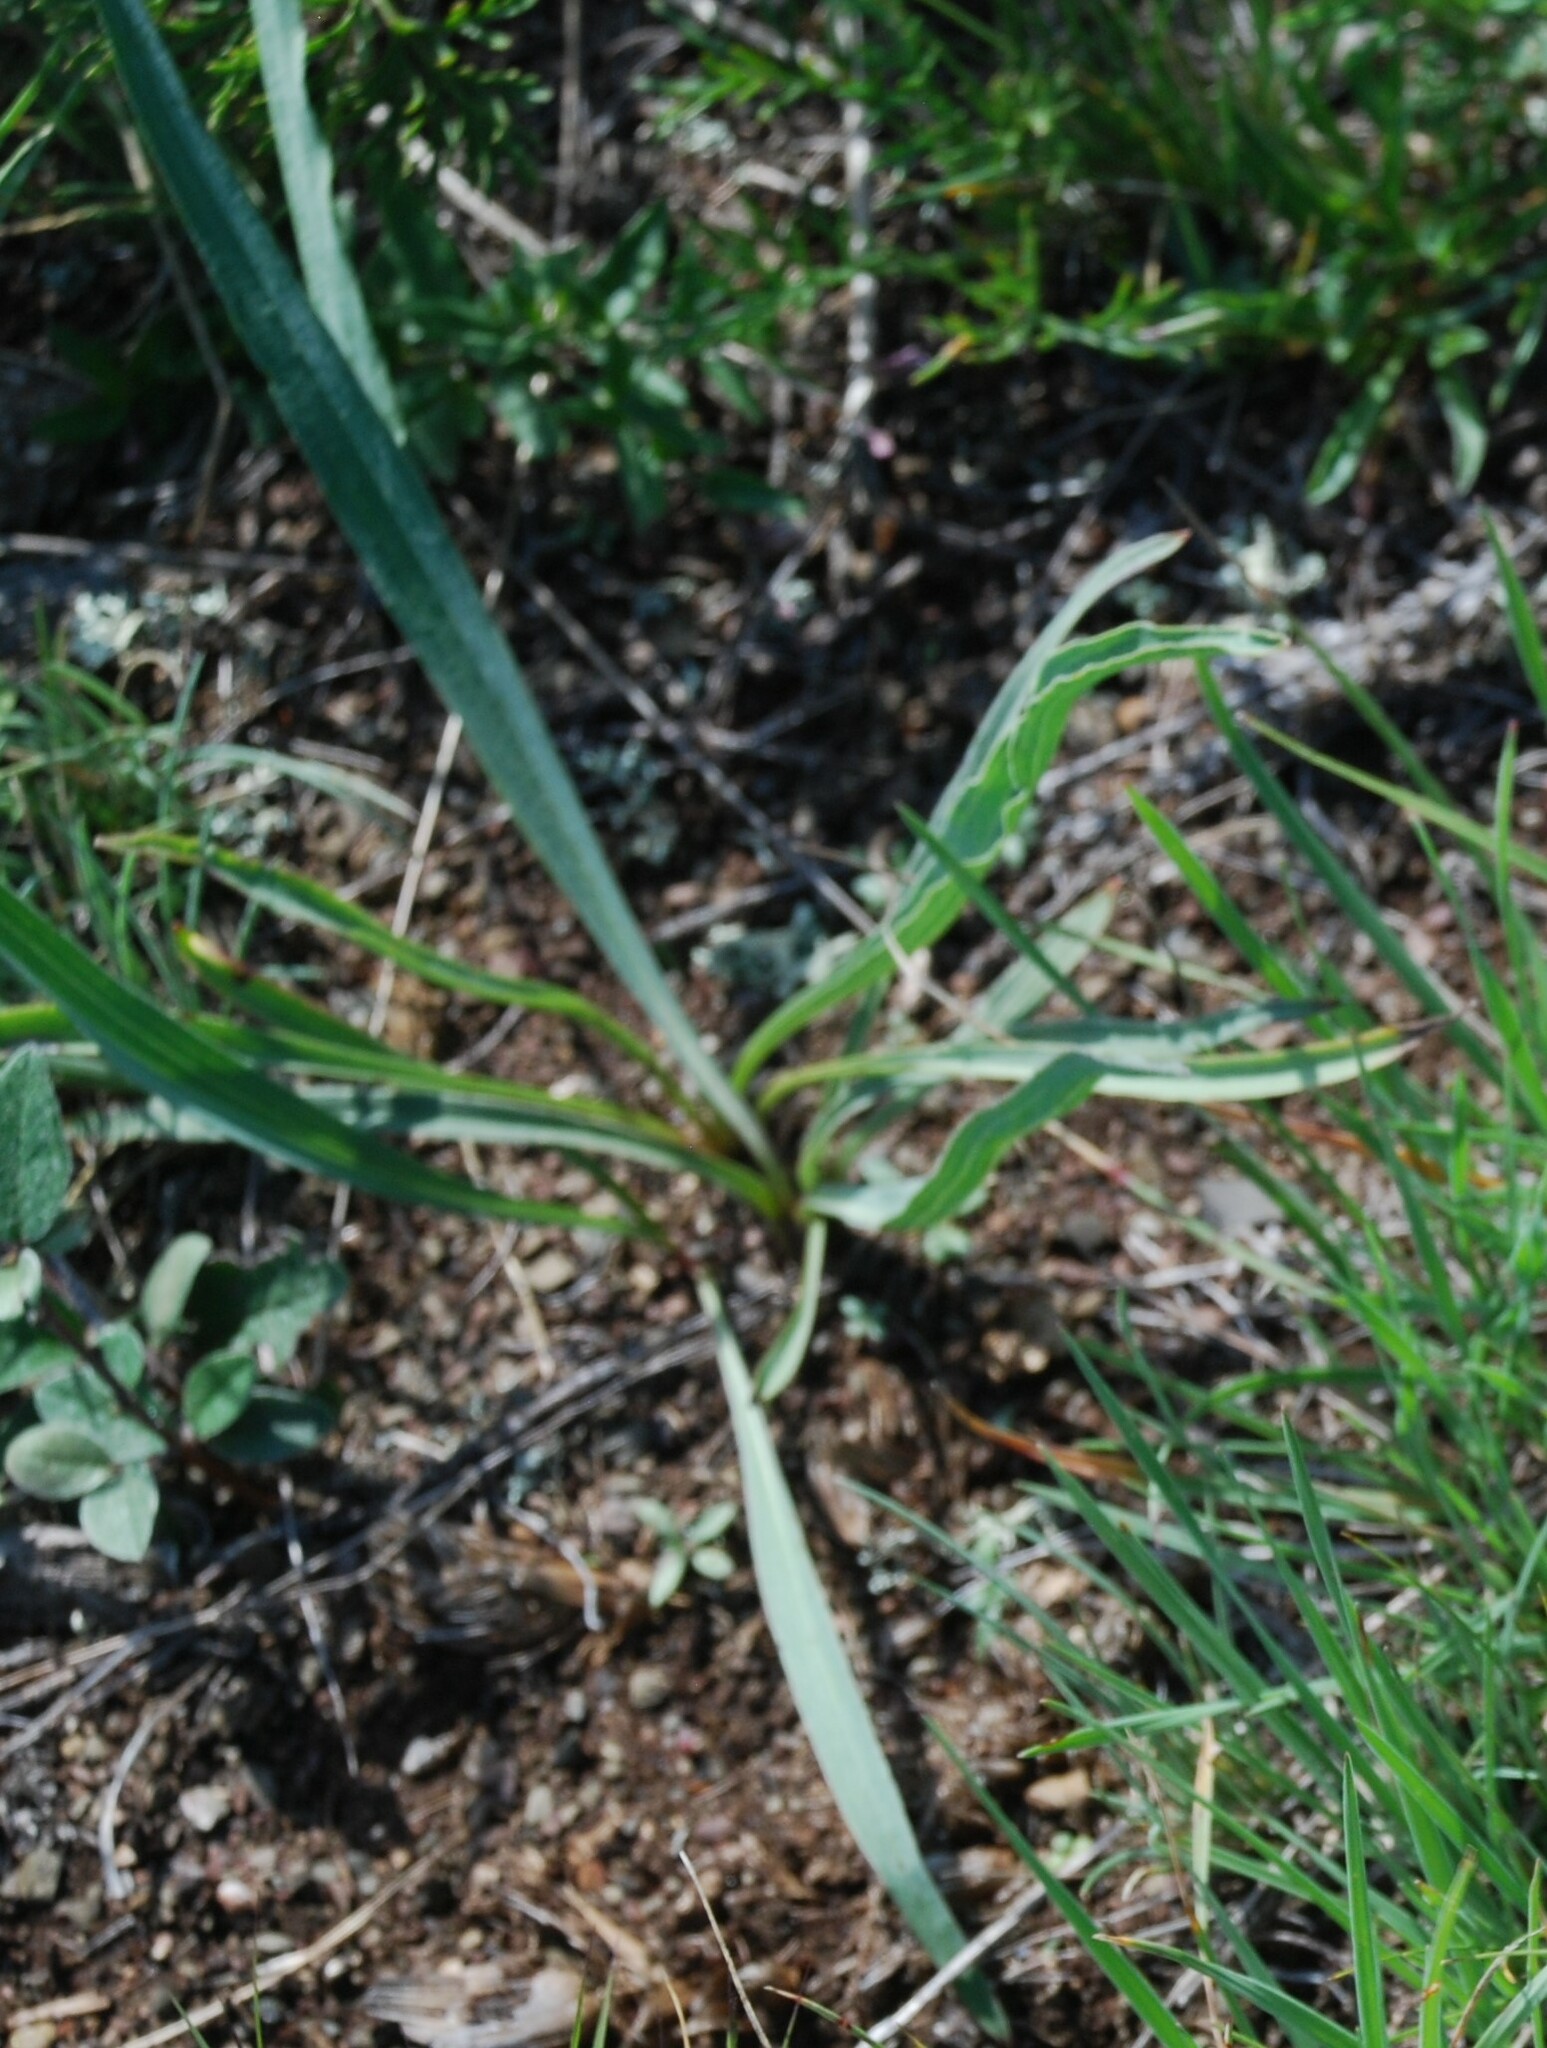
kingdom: Plantae
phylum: Tracheophyta
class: Magnoliopsida
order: Asterales
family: Asteraceae
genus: Takhtajaniantha
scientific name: Takhtajaniantha austriaca
